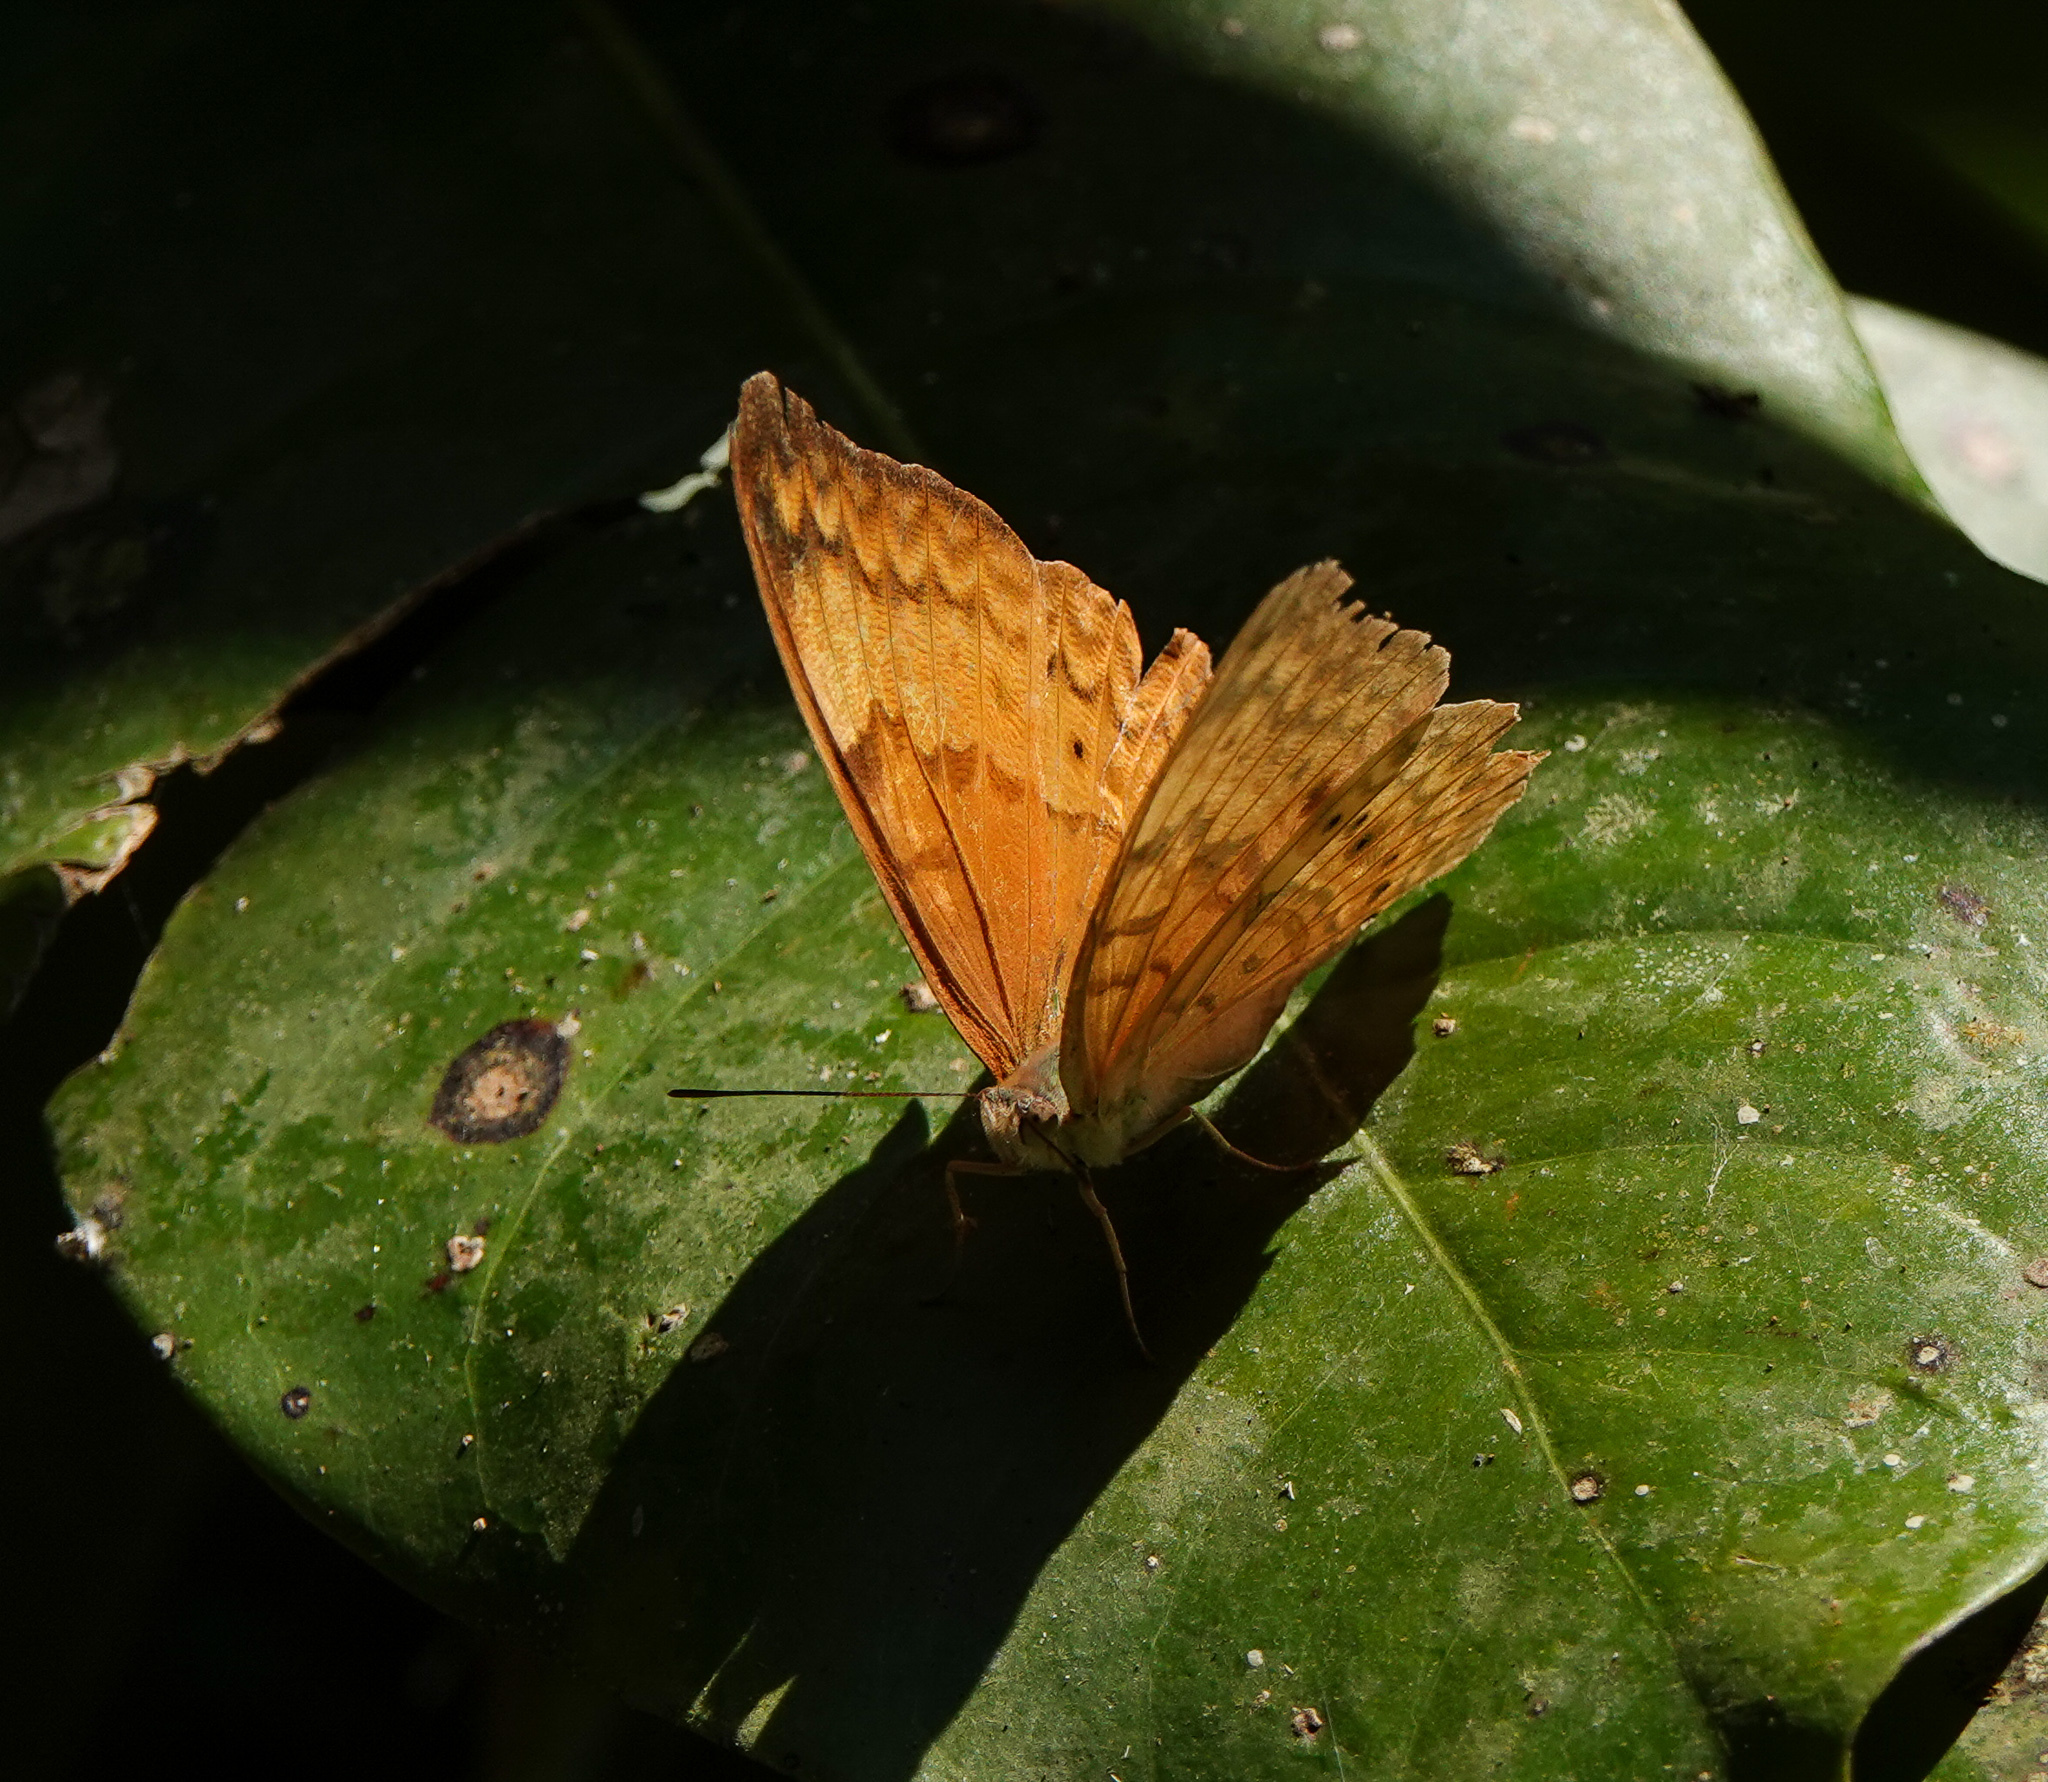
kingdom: Animalia
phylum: Arthropoda
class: Insecta
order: Lepidoptera
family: Nymphalidae
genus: Cirrochroa
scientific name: Cirrochroa tyche
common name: Common yeoman
